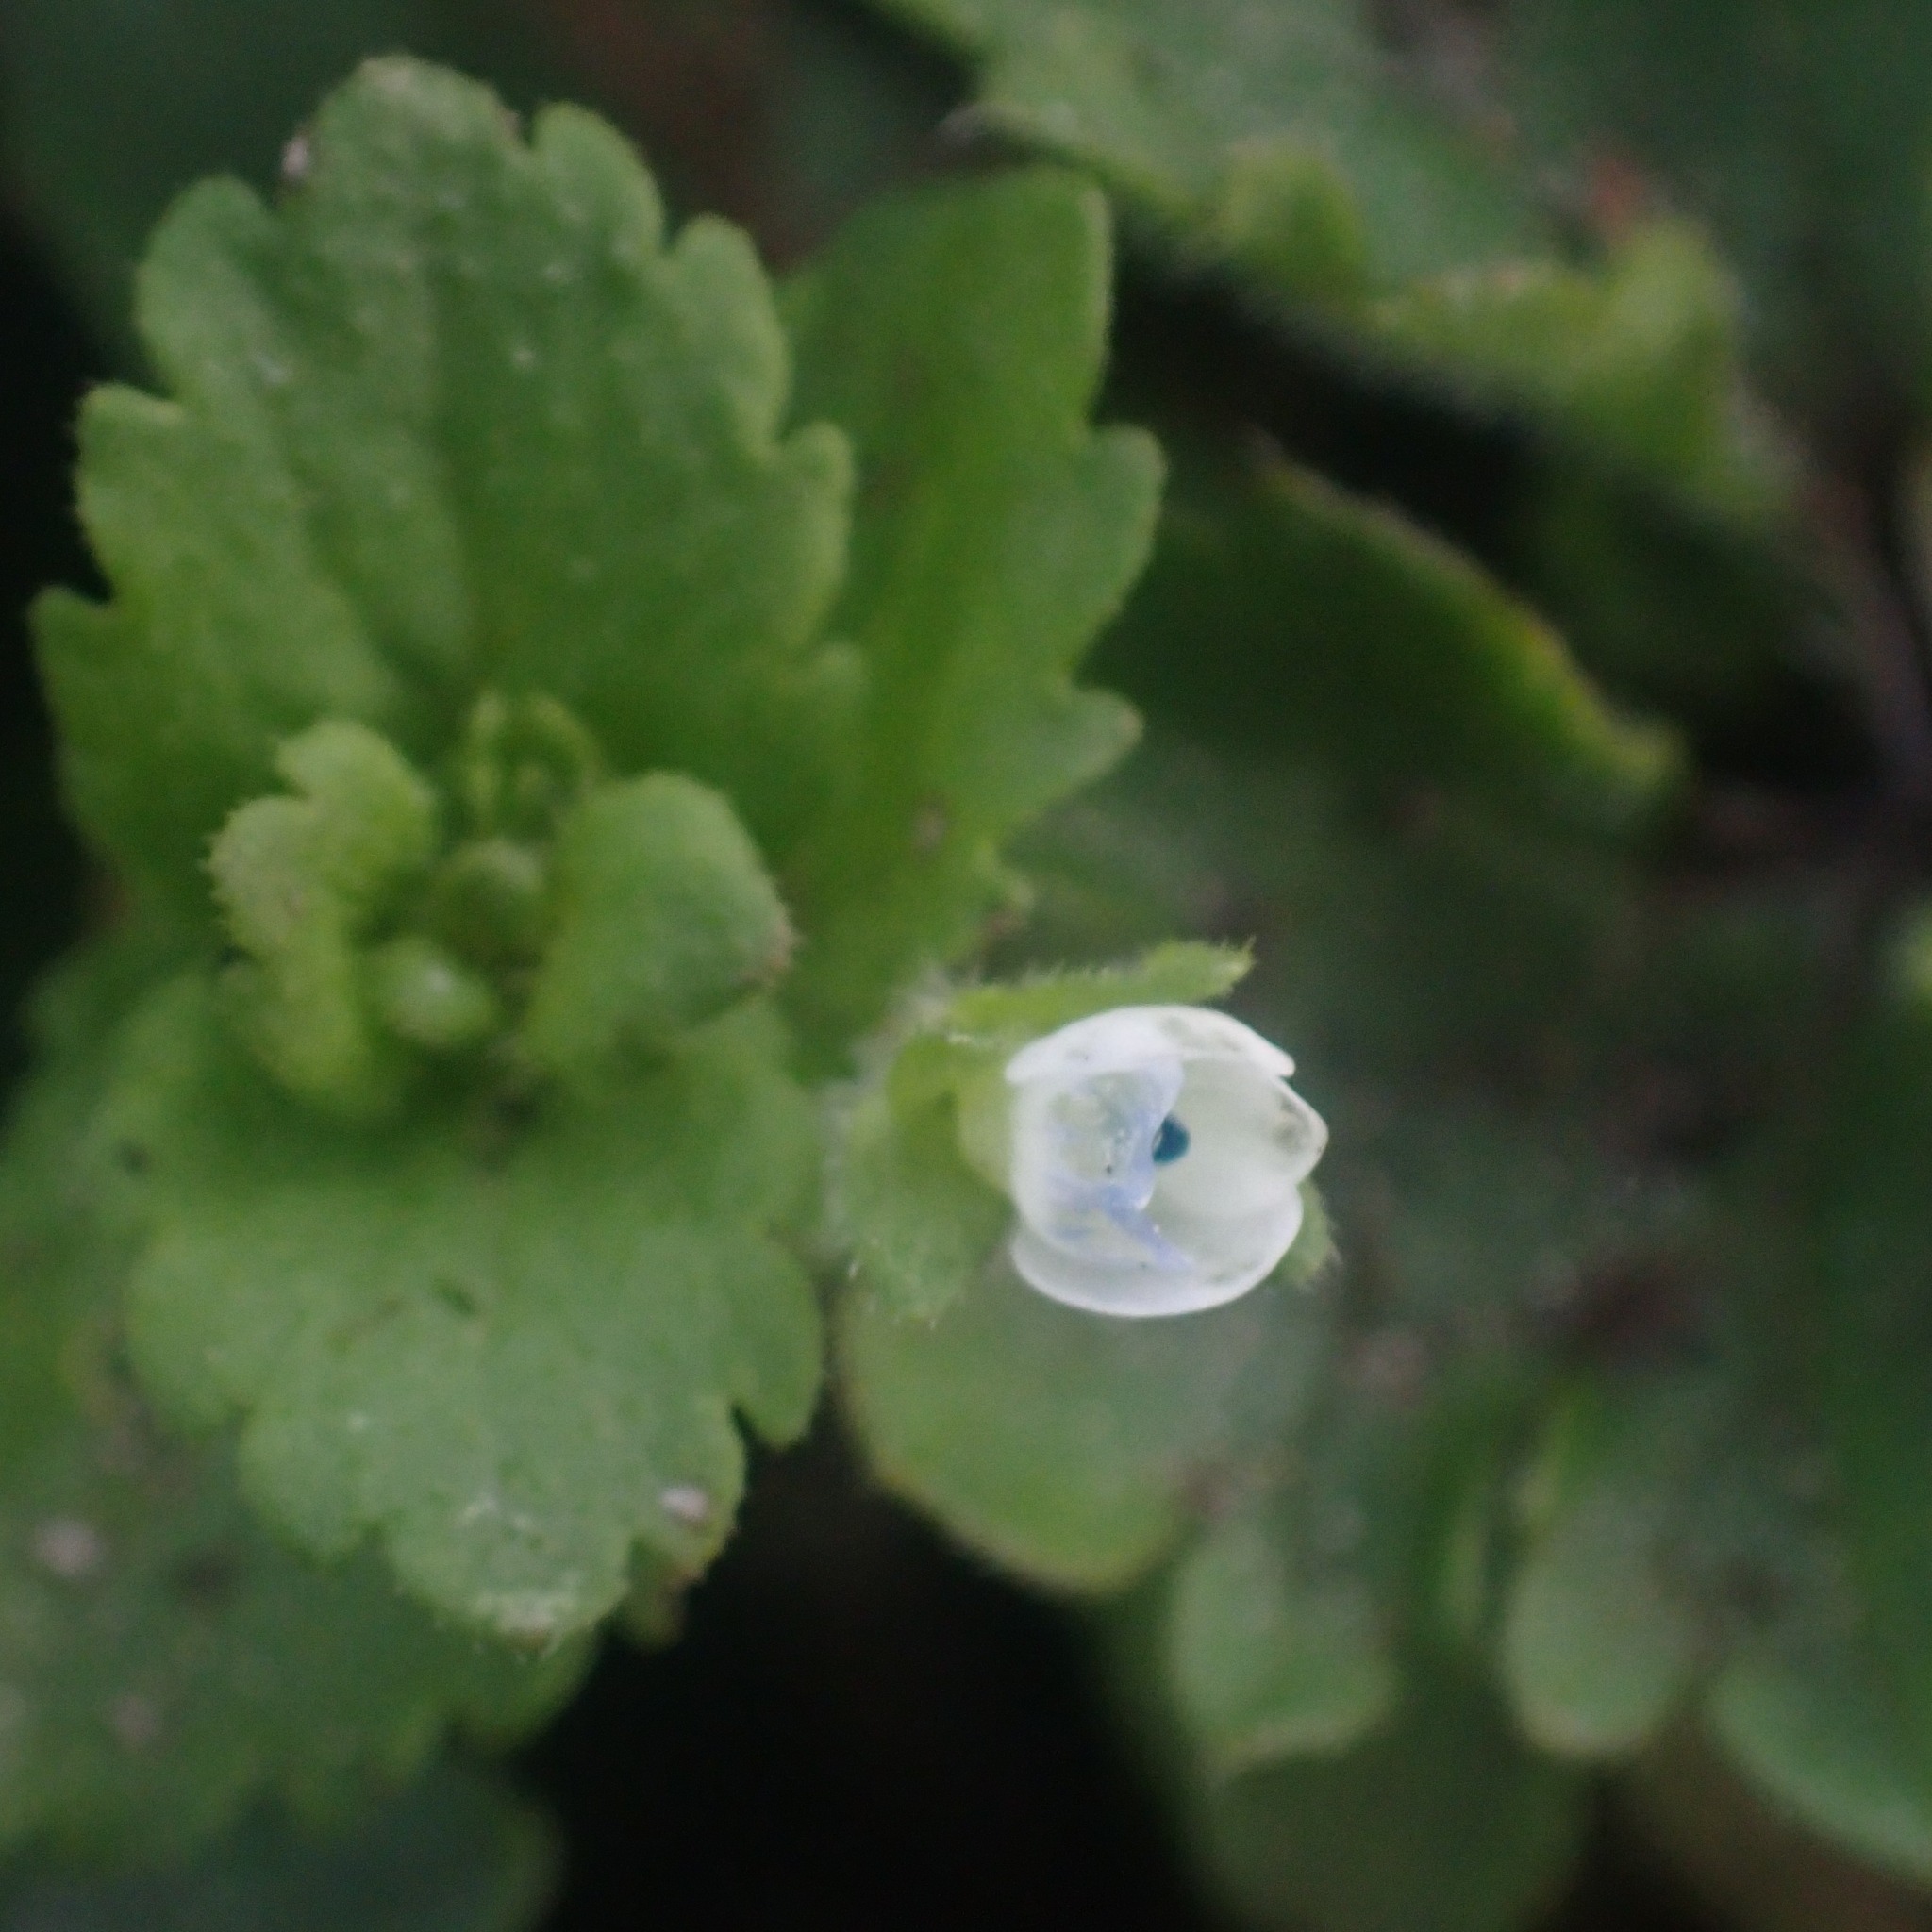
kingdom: Plantae
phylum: Tracheophyta
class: Magnoliopsida
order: Lamiales
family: Plantaginaceae
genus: Veronica
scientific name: Veronica agrestis
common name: Green field-speedwell
